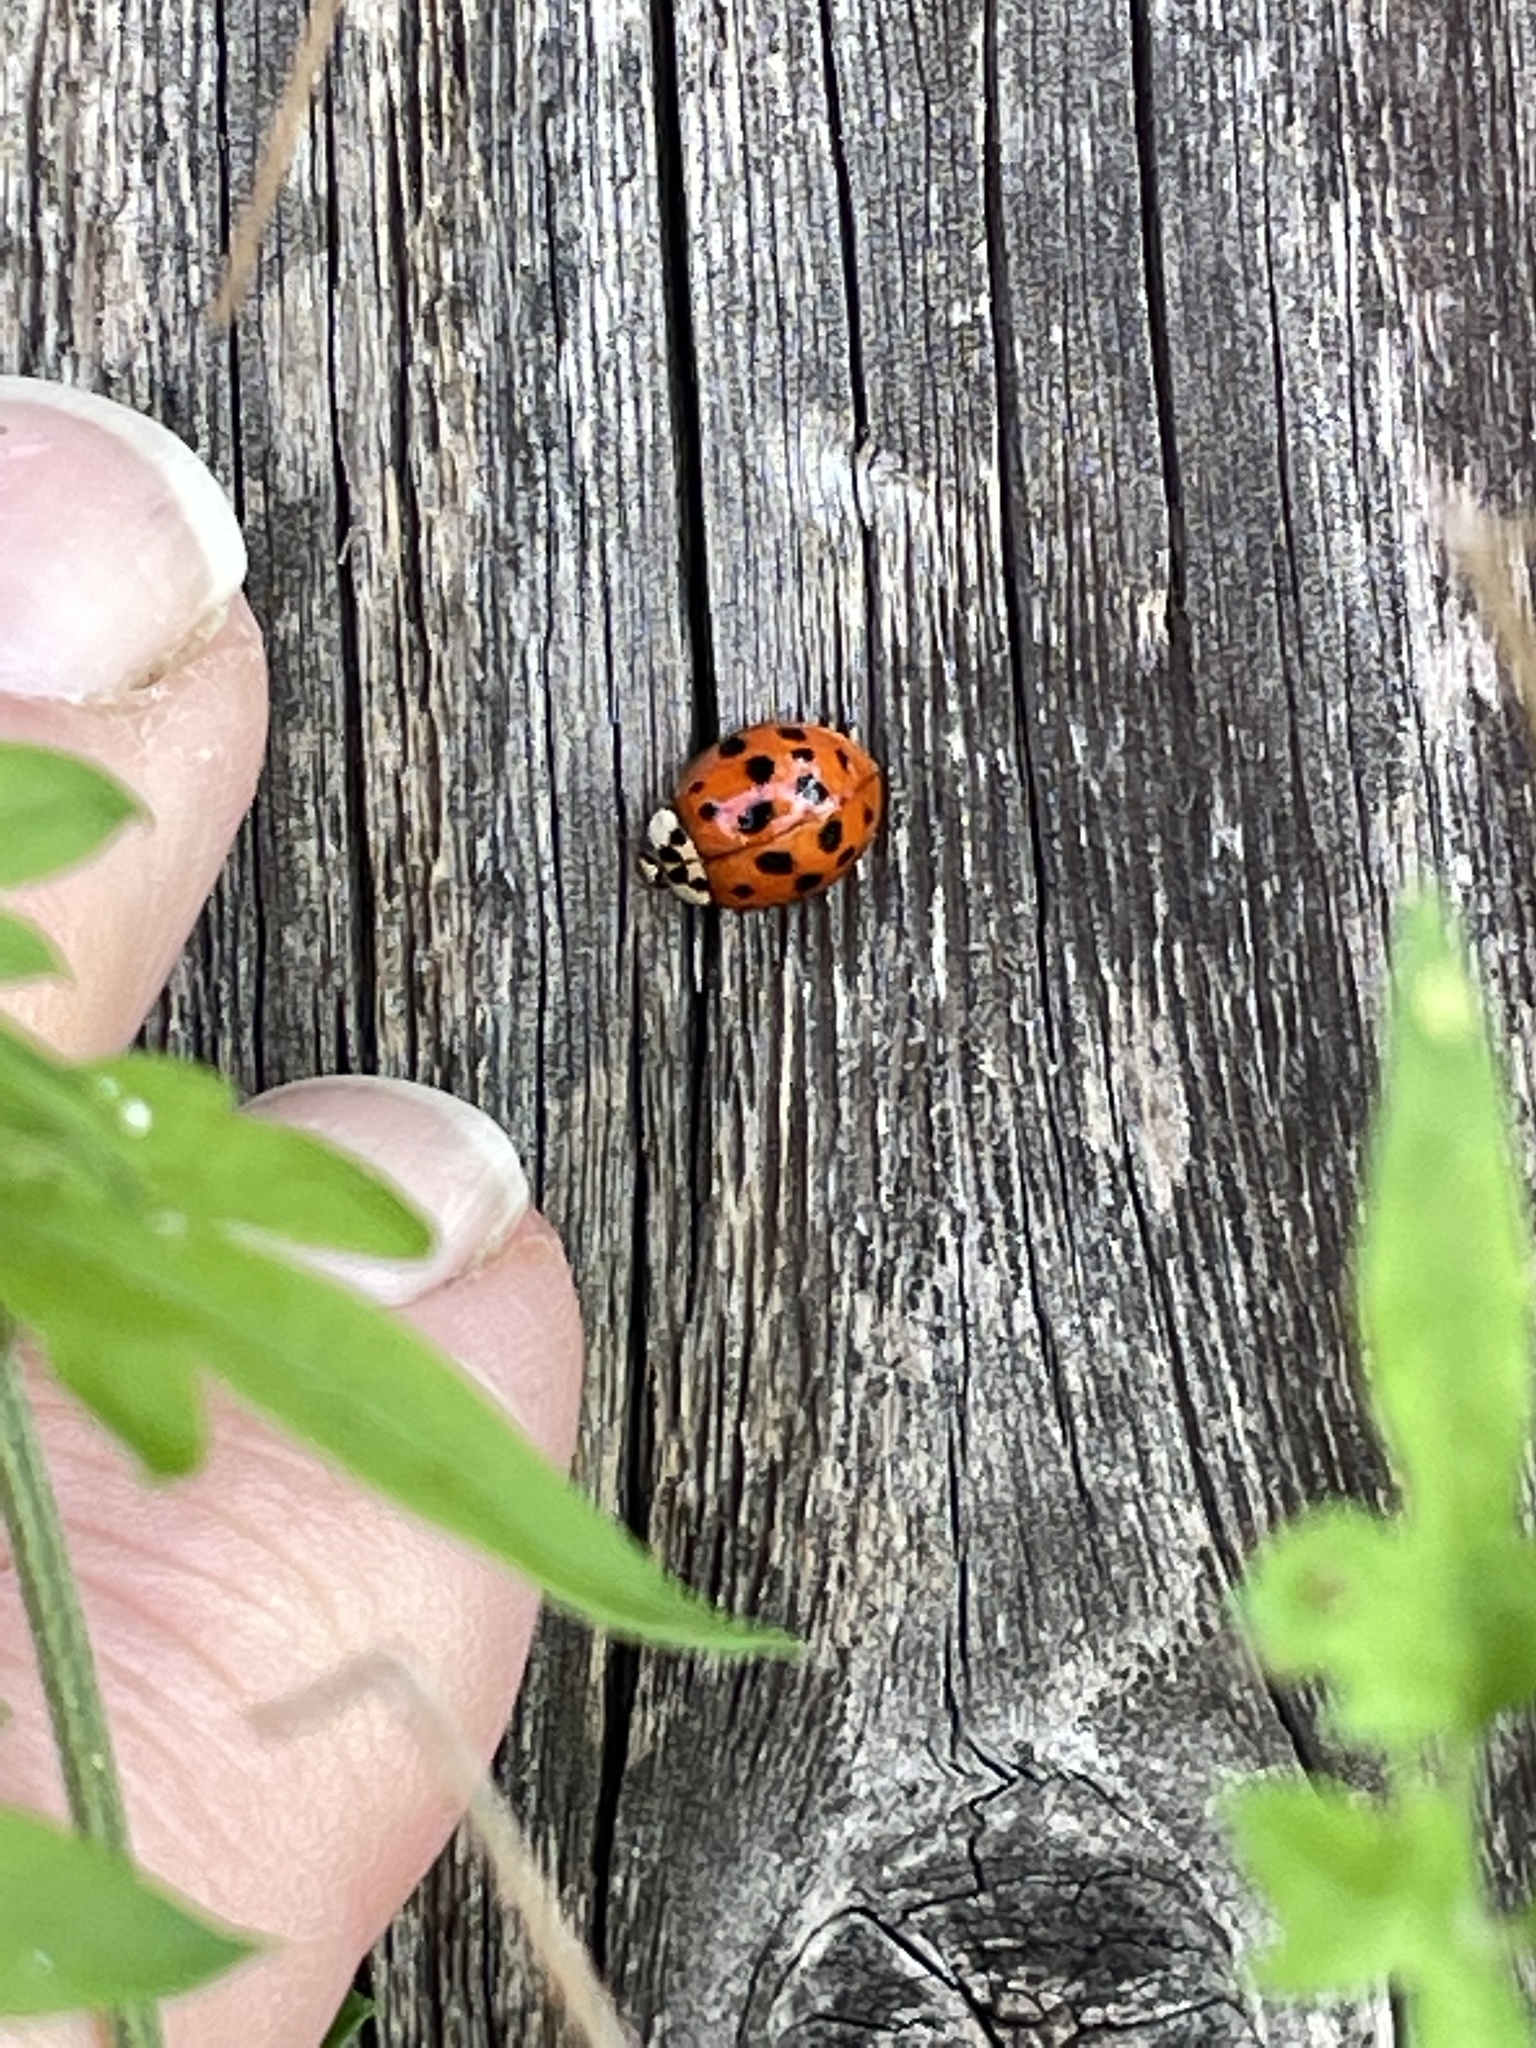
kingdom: Animalia
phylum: Arthropoda
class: Insecta
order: Coleoptera
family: Coccinellidae
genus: Harmonia
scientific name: Harmonia axyridis
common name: Harlequin ladybird
